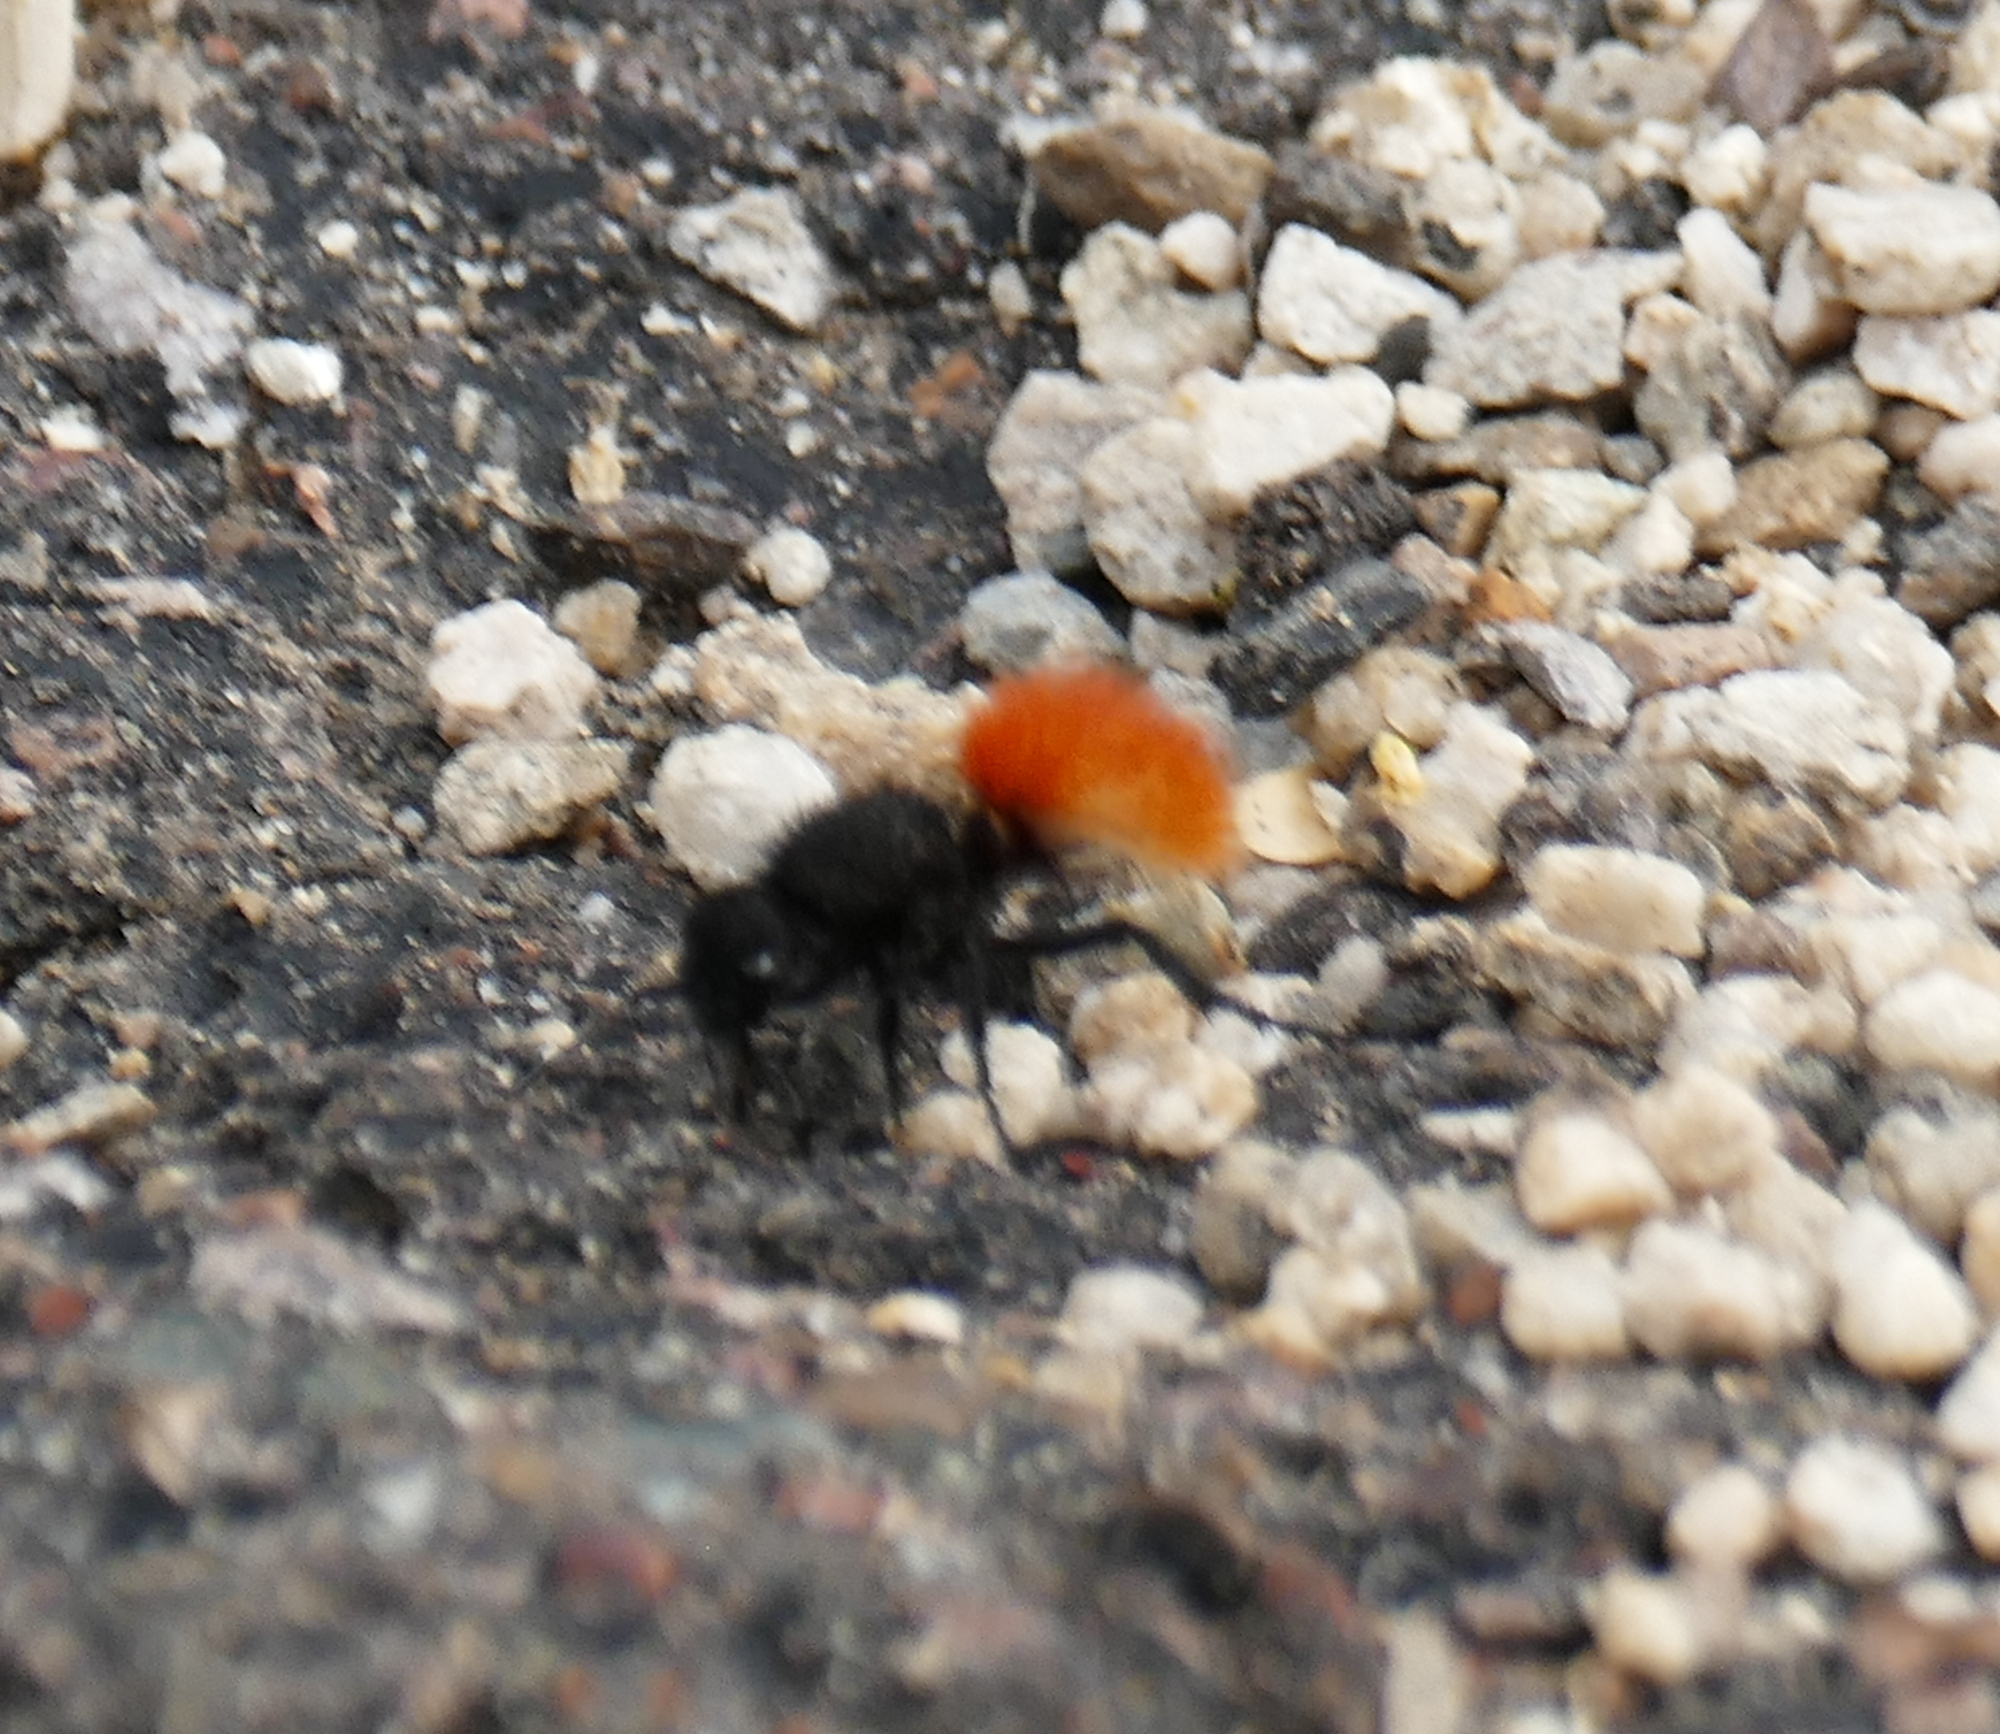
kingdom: Animalia
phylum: Arthropoda
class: Insecta
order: Hymenoptera
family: Mutillidae
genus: Dasymutilla
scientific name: Dasymutilla vestita
